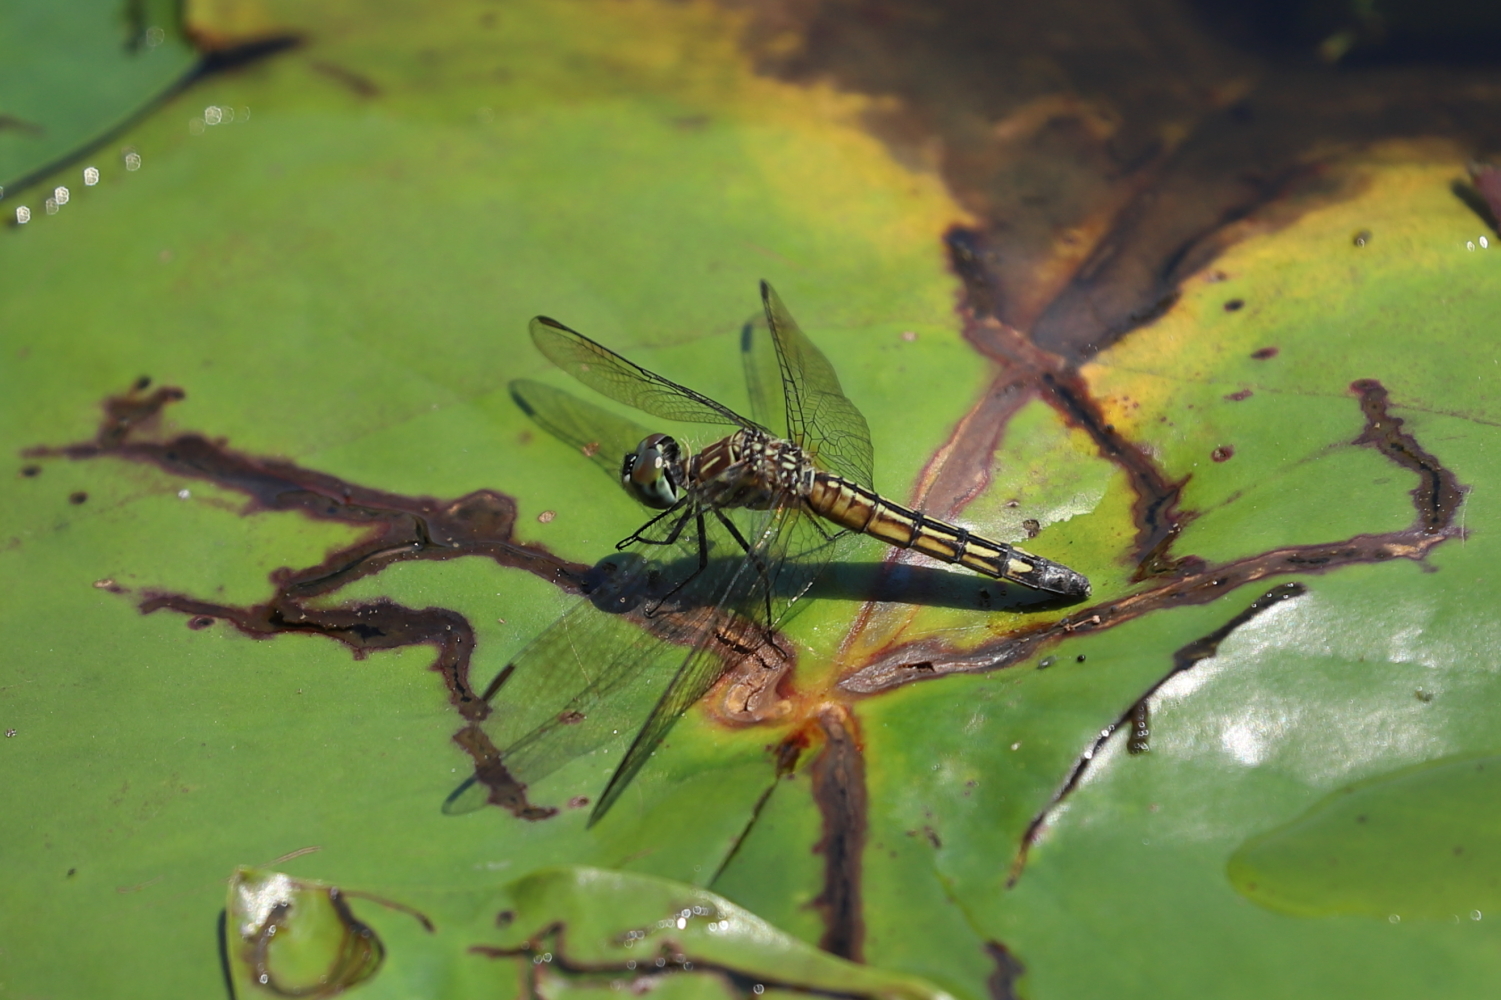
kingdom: Animalia
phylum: Arthropoda
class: Insecta
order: Odonata
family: Libellulidae
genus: Pachydiplax
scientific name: Pachydiplax longipennis
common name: Blue dasher
